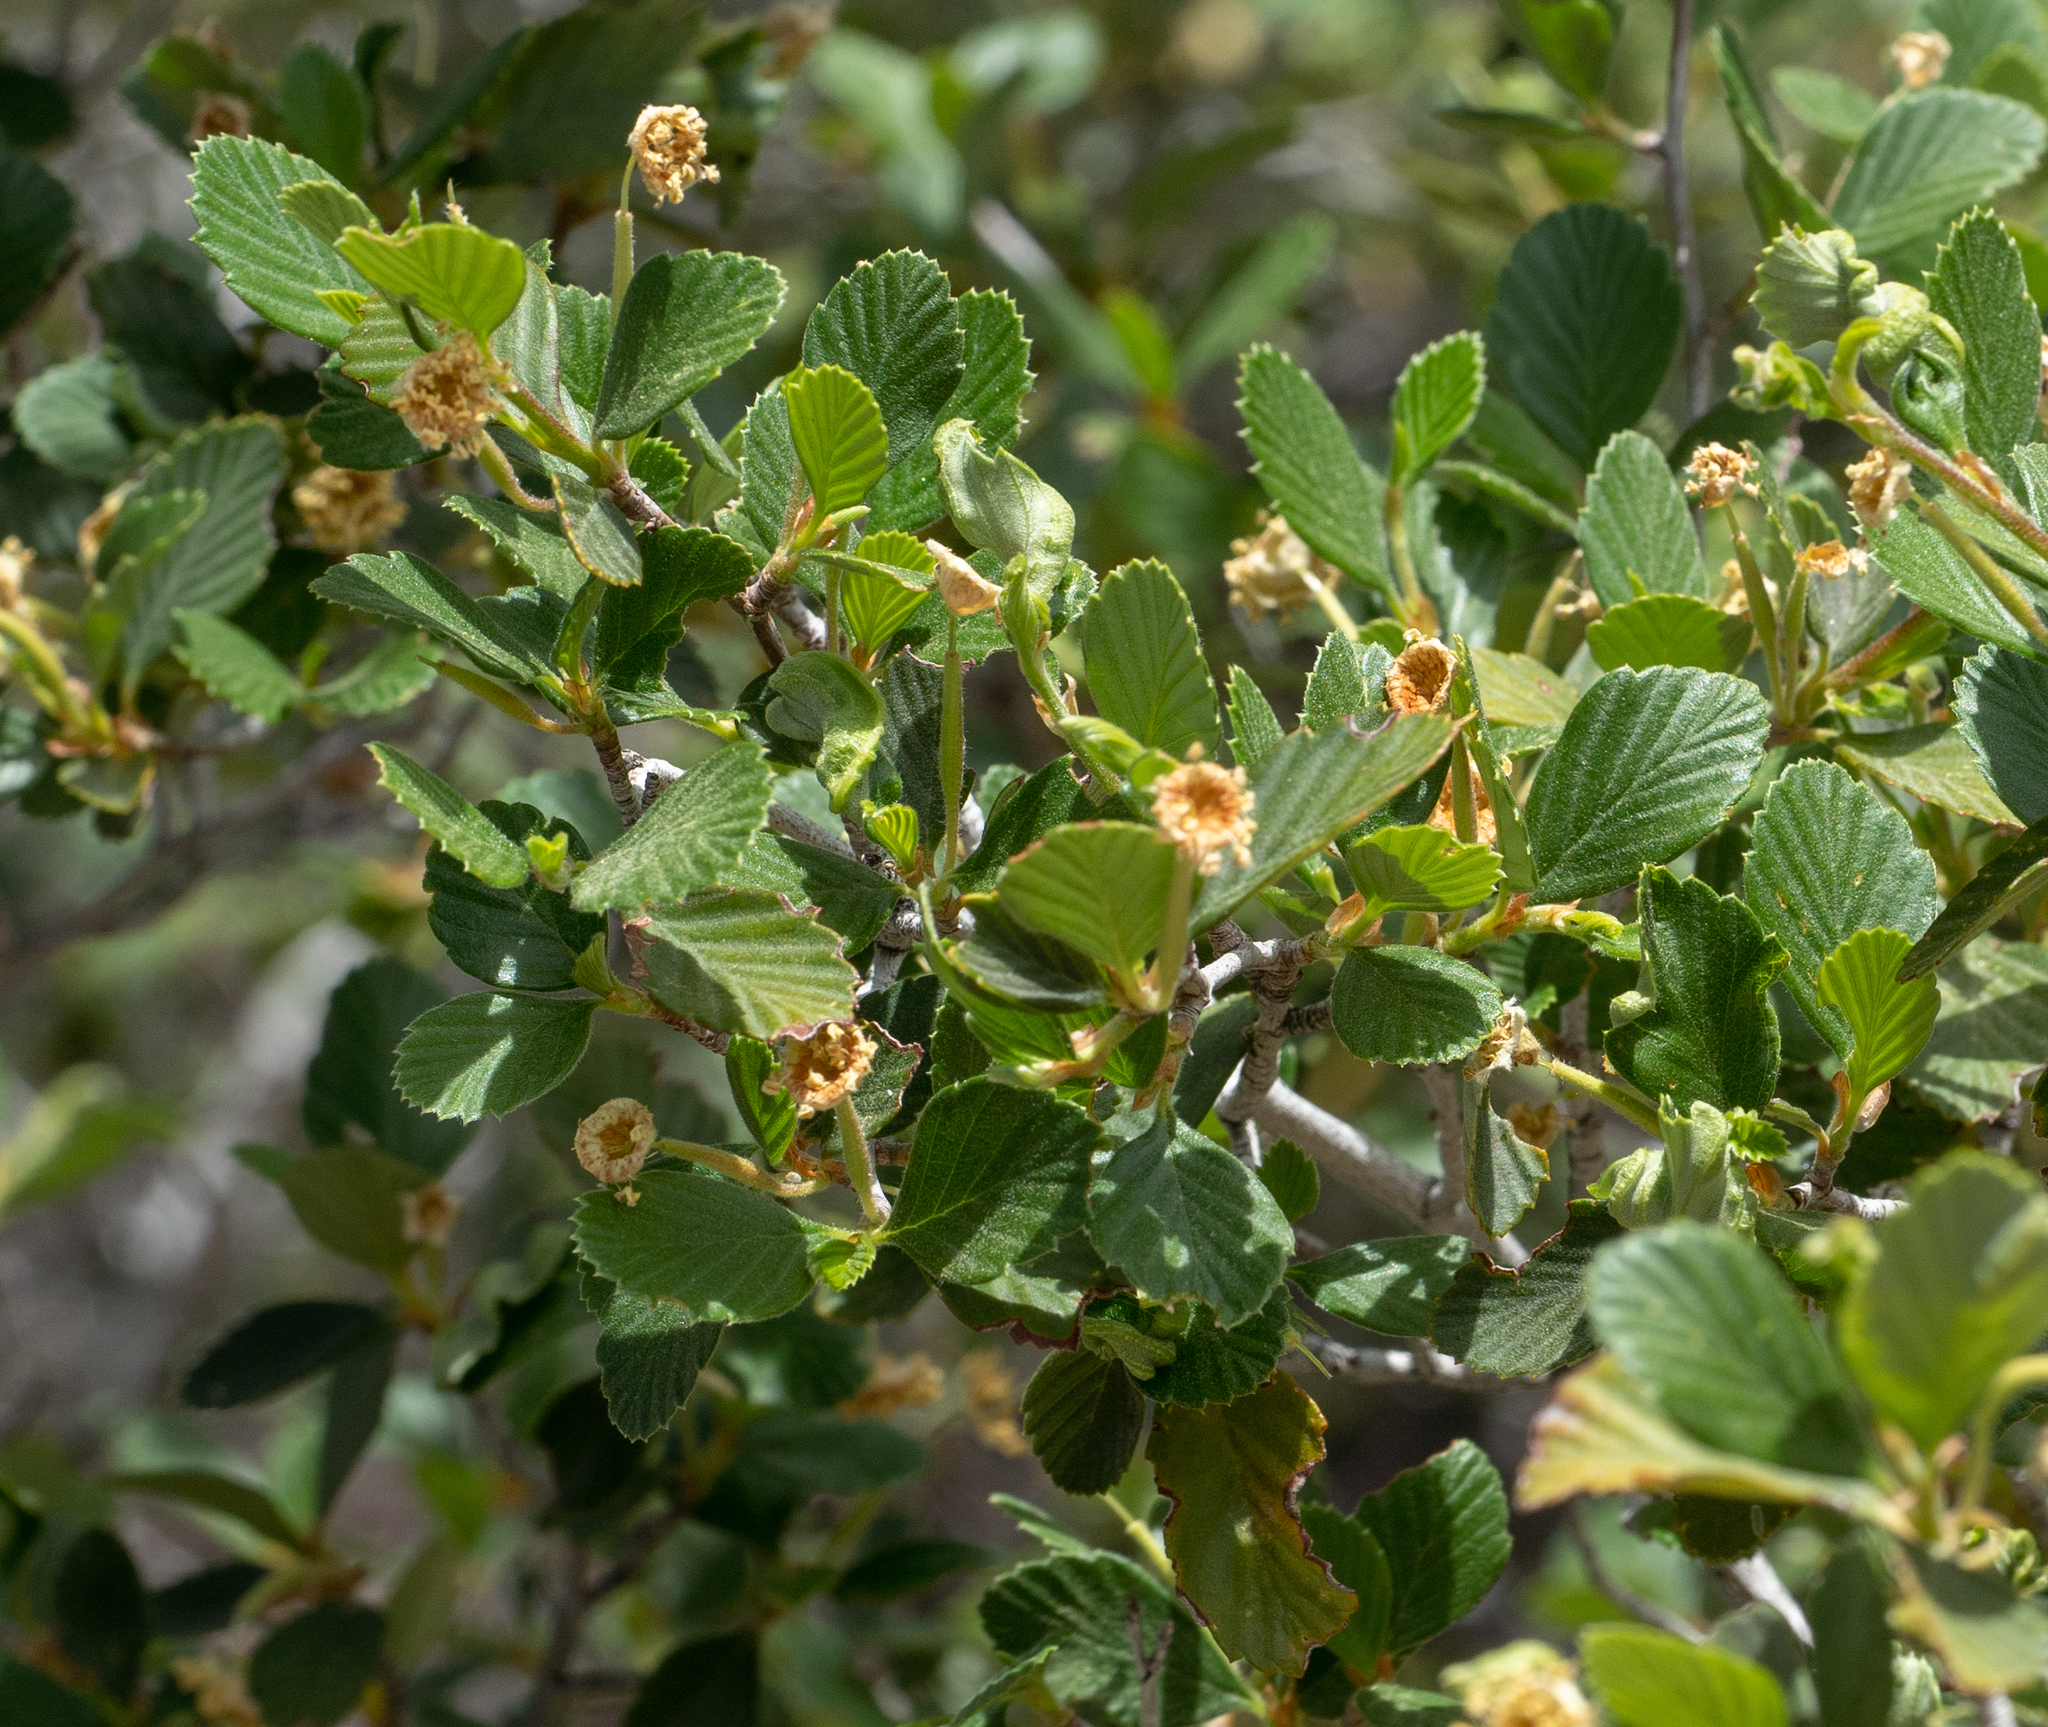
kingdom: Plantae
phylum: Tracheophyta
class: Magnoliopsida
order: Rosales
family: Rosaceae
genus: Cercocarpus
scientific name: Cercocarpus betuloides
